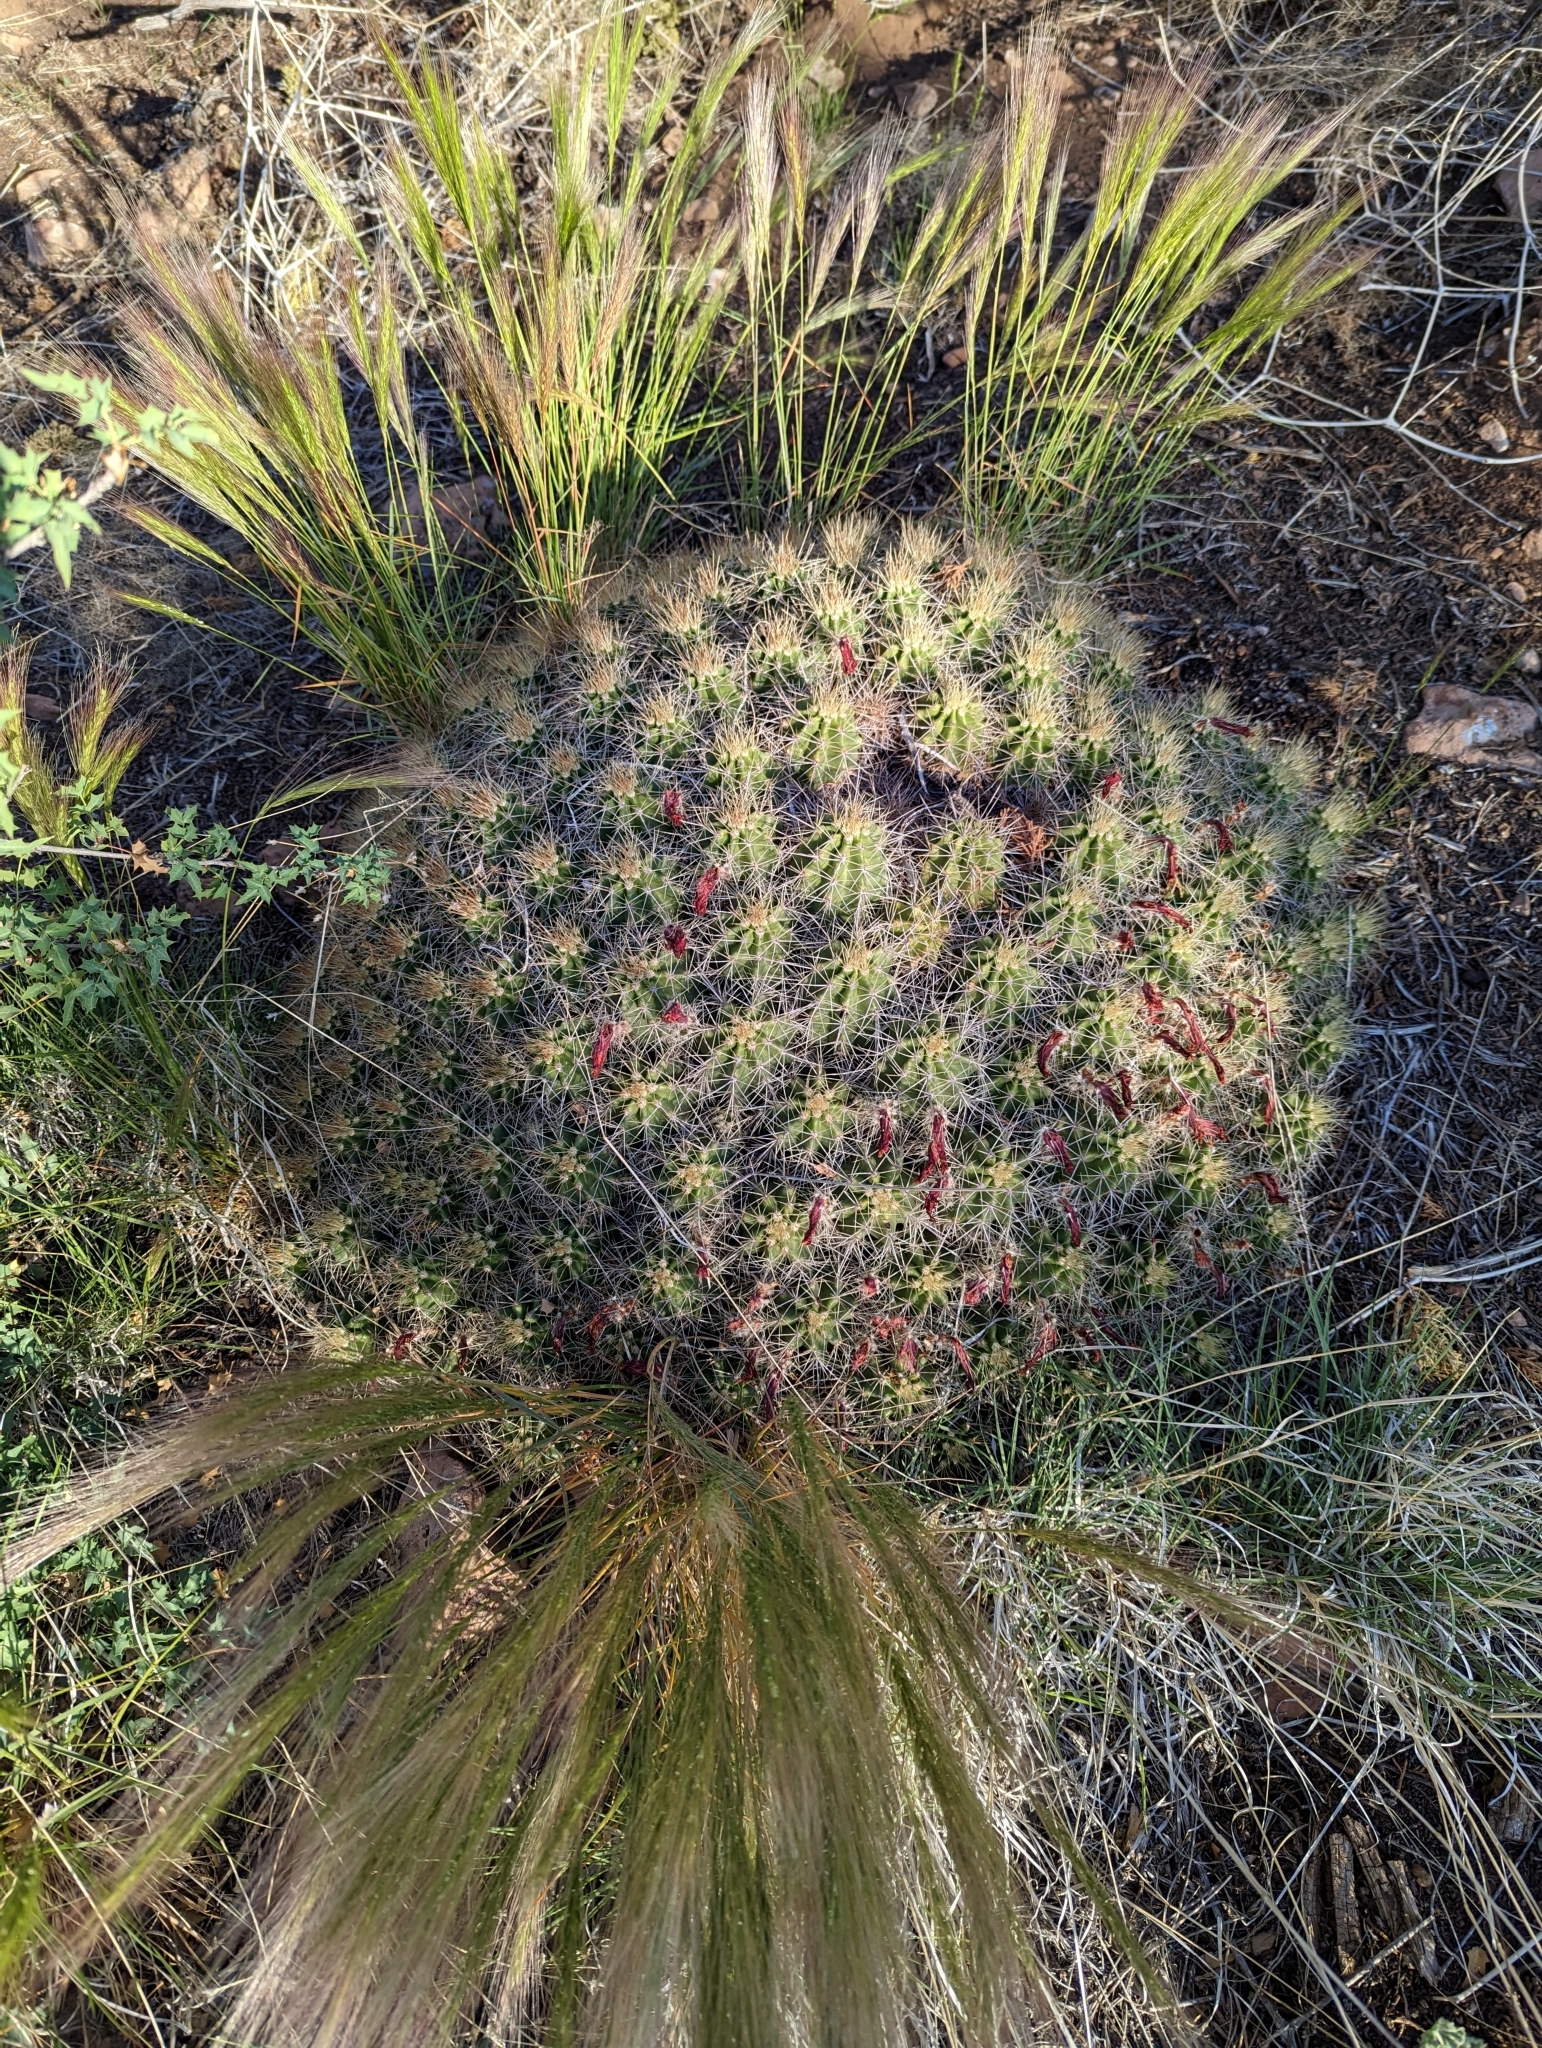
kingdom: Plantae
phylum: Tracheophyta
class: Magnoliopsida
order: Caryophyllales
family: Cactaceae
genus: Echinocereus
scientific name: Echinocereus bakeri
